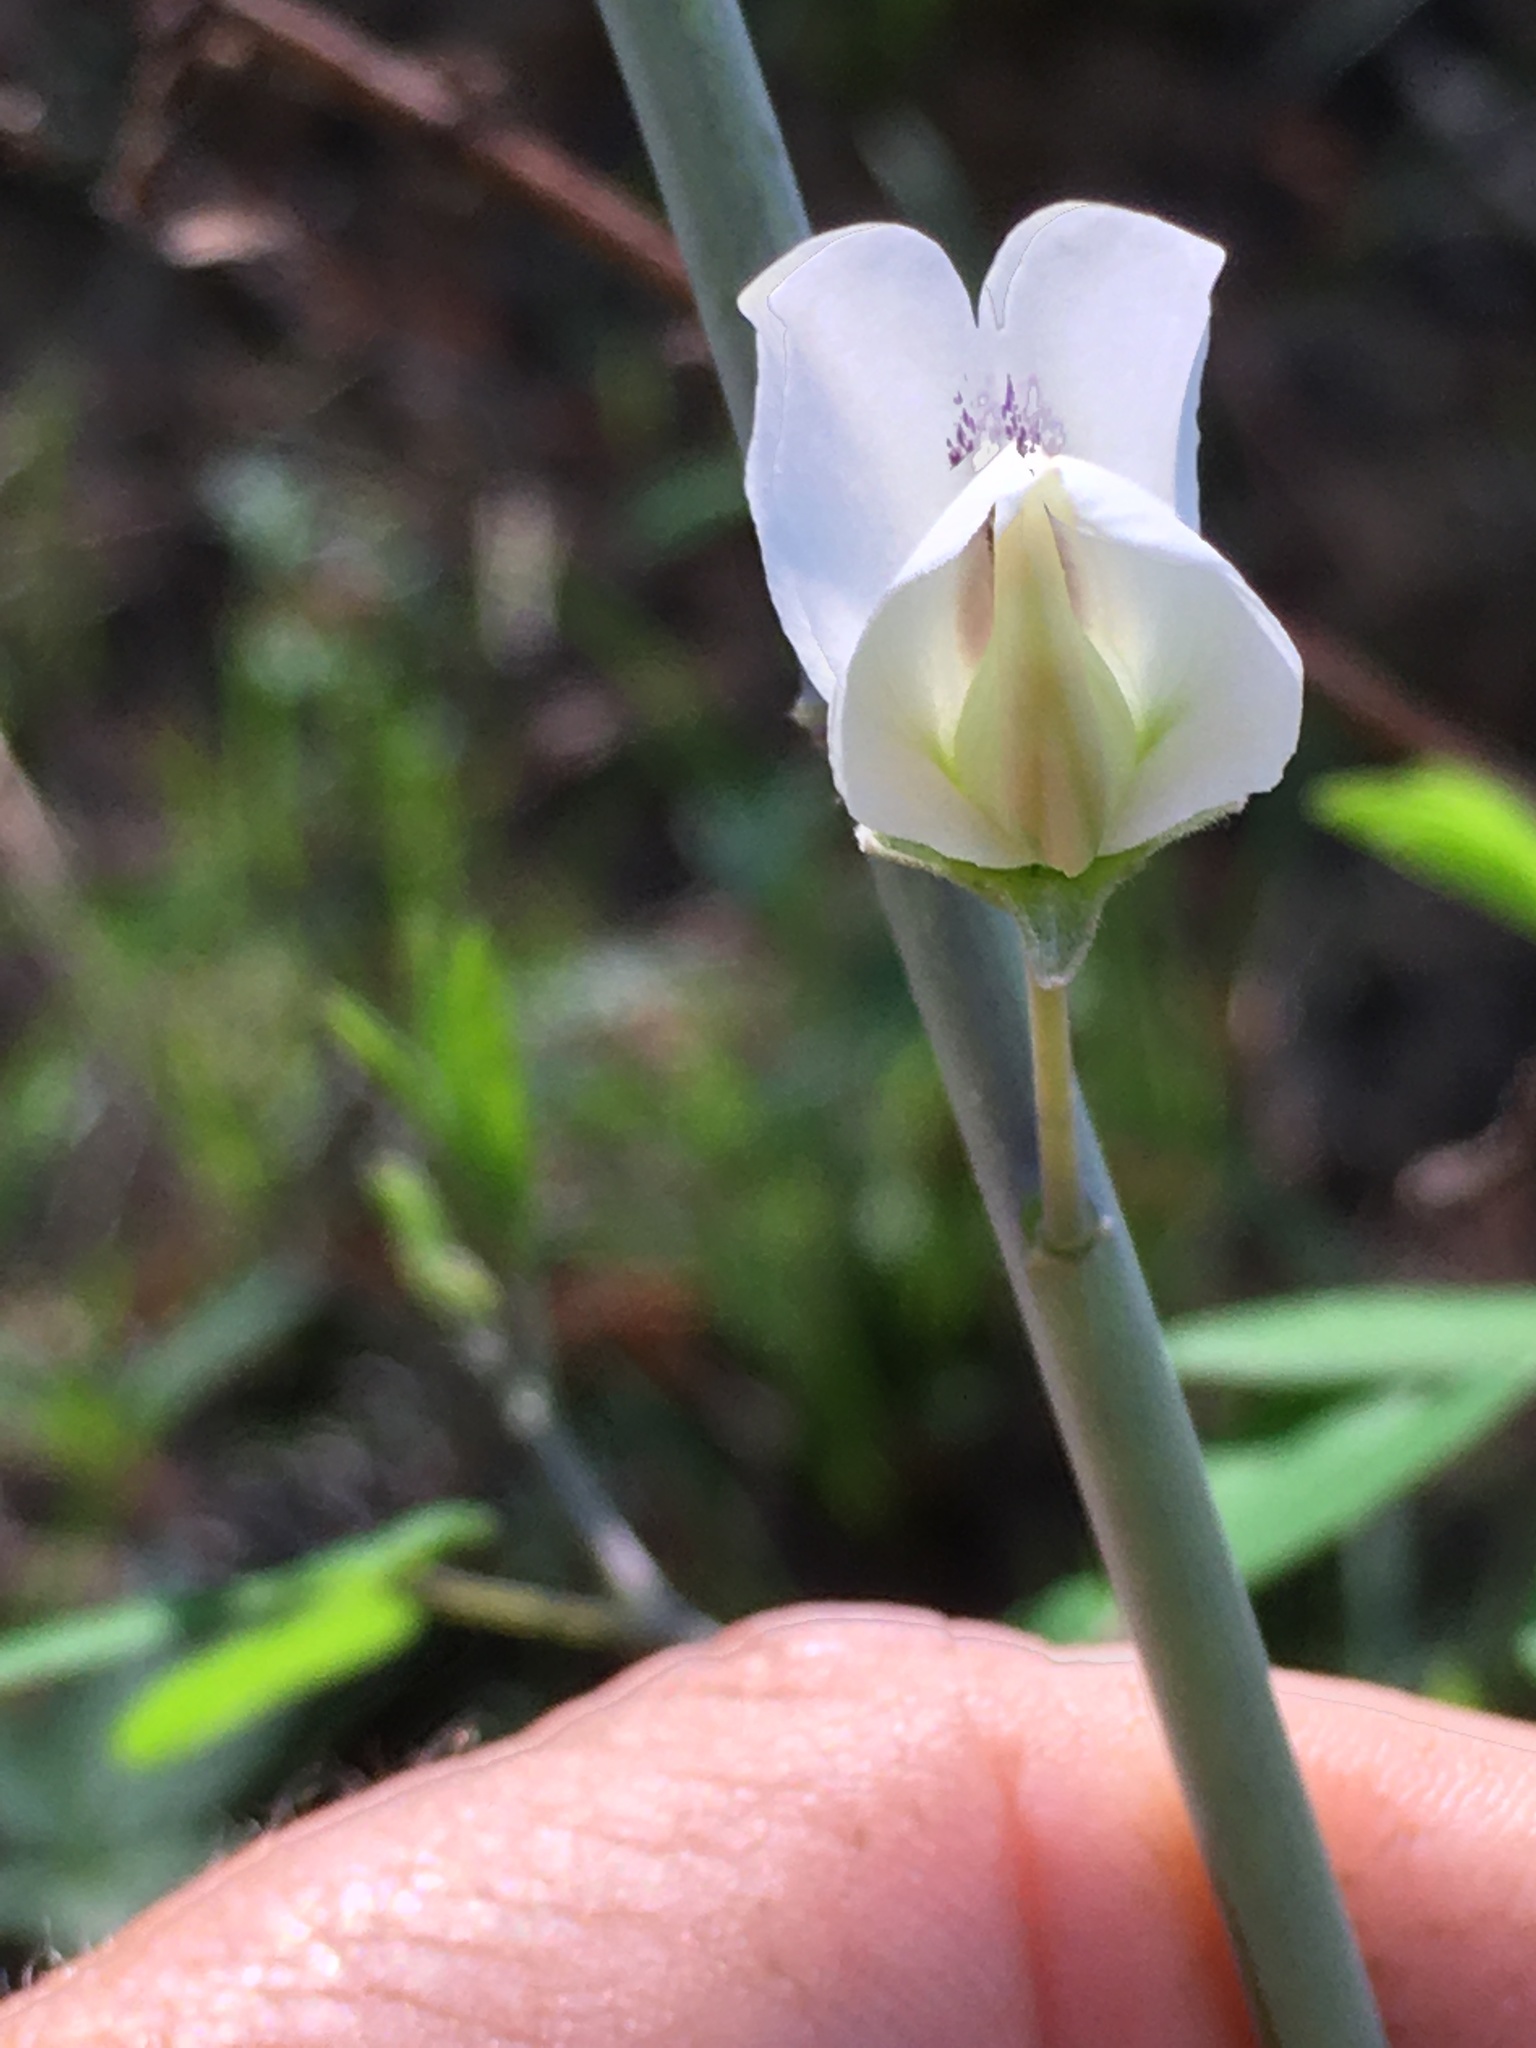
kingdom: Plantae
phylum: Tracheophyta
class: Magnoliopsida
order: Fabales
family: Fabaceae
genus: Baptisia
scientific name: Baptisia albescens
